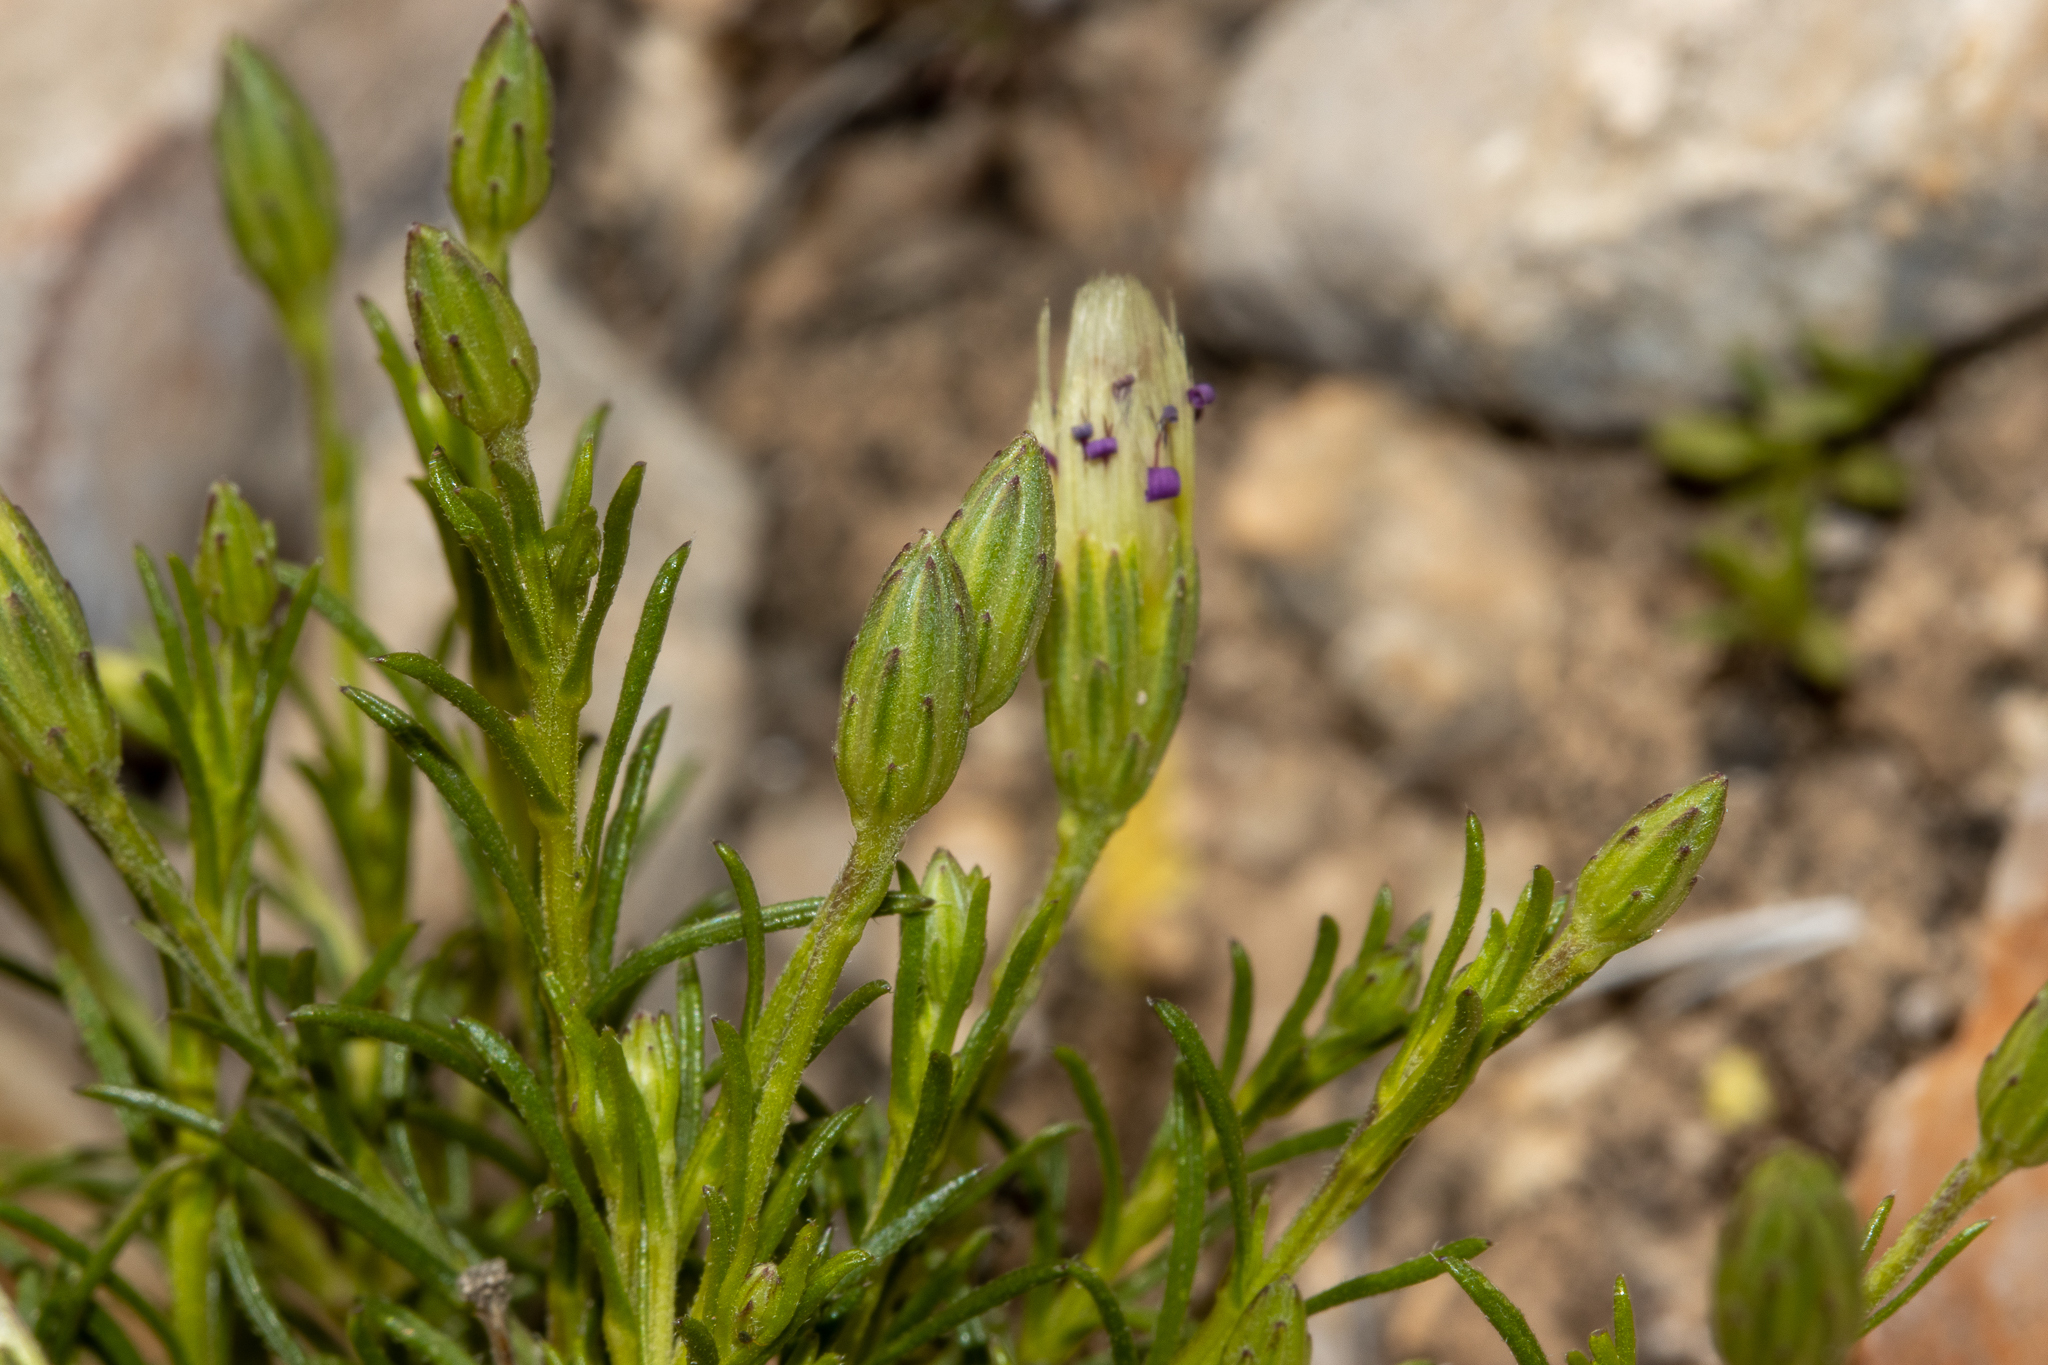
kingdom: Plantae
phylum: Tracheophyta
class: Magnoliopsida
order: Asterales
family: Asteraceae
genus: Vittadinia
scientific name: Vittadinia blackii
